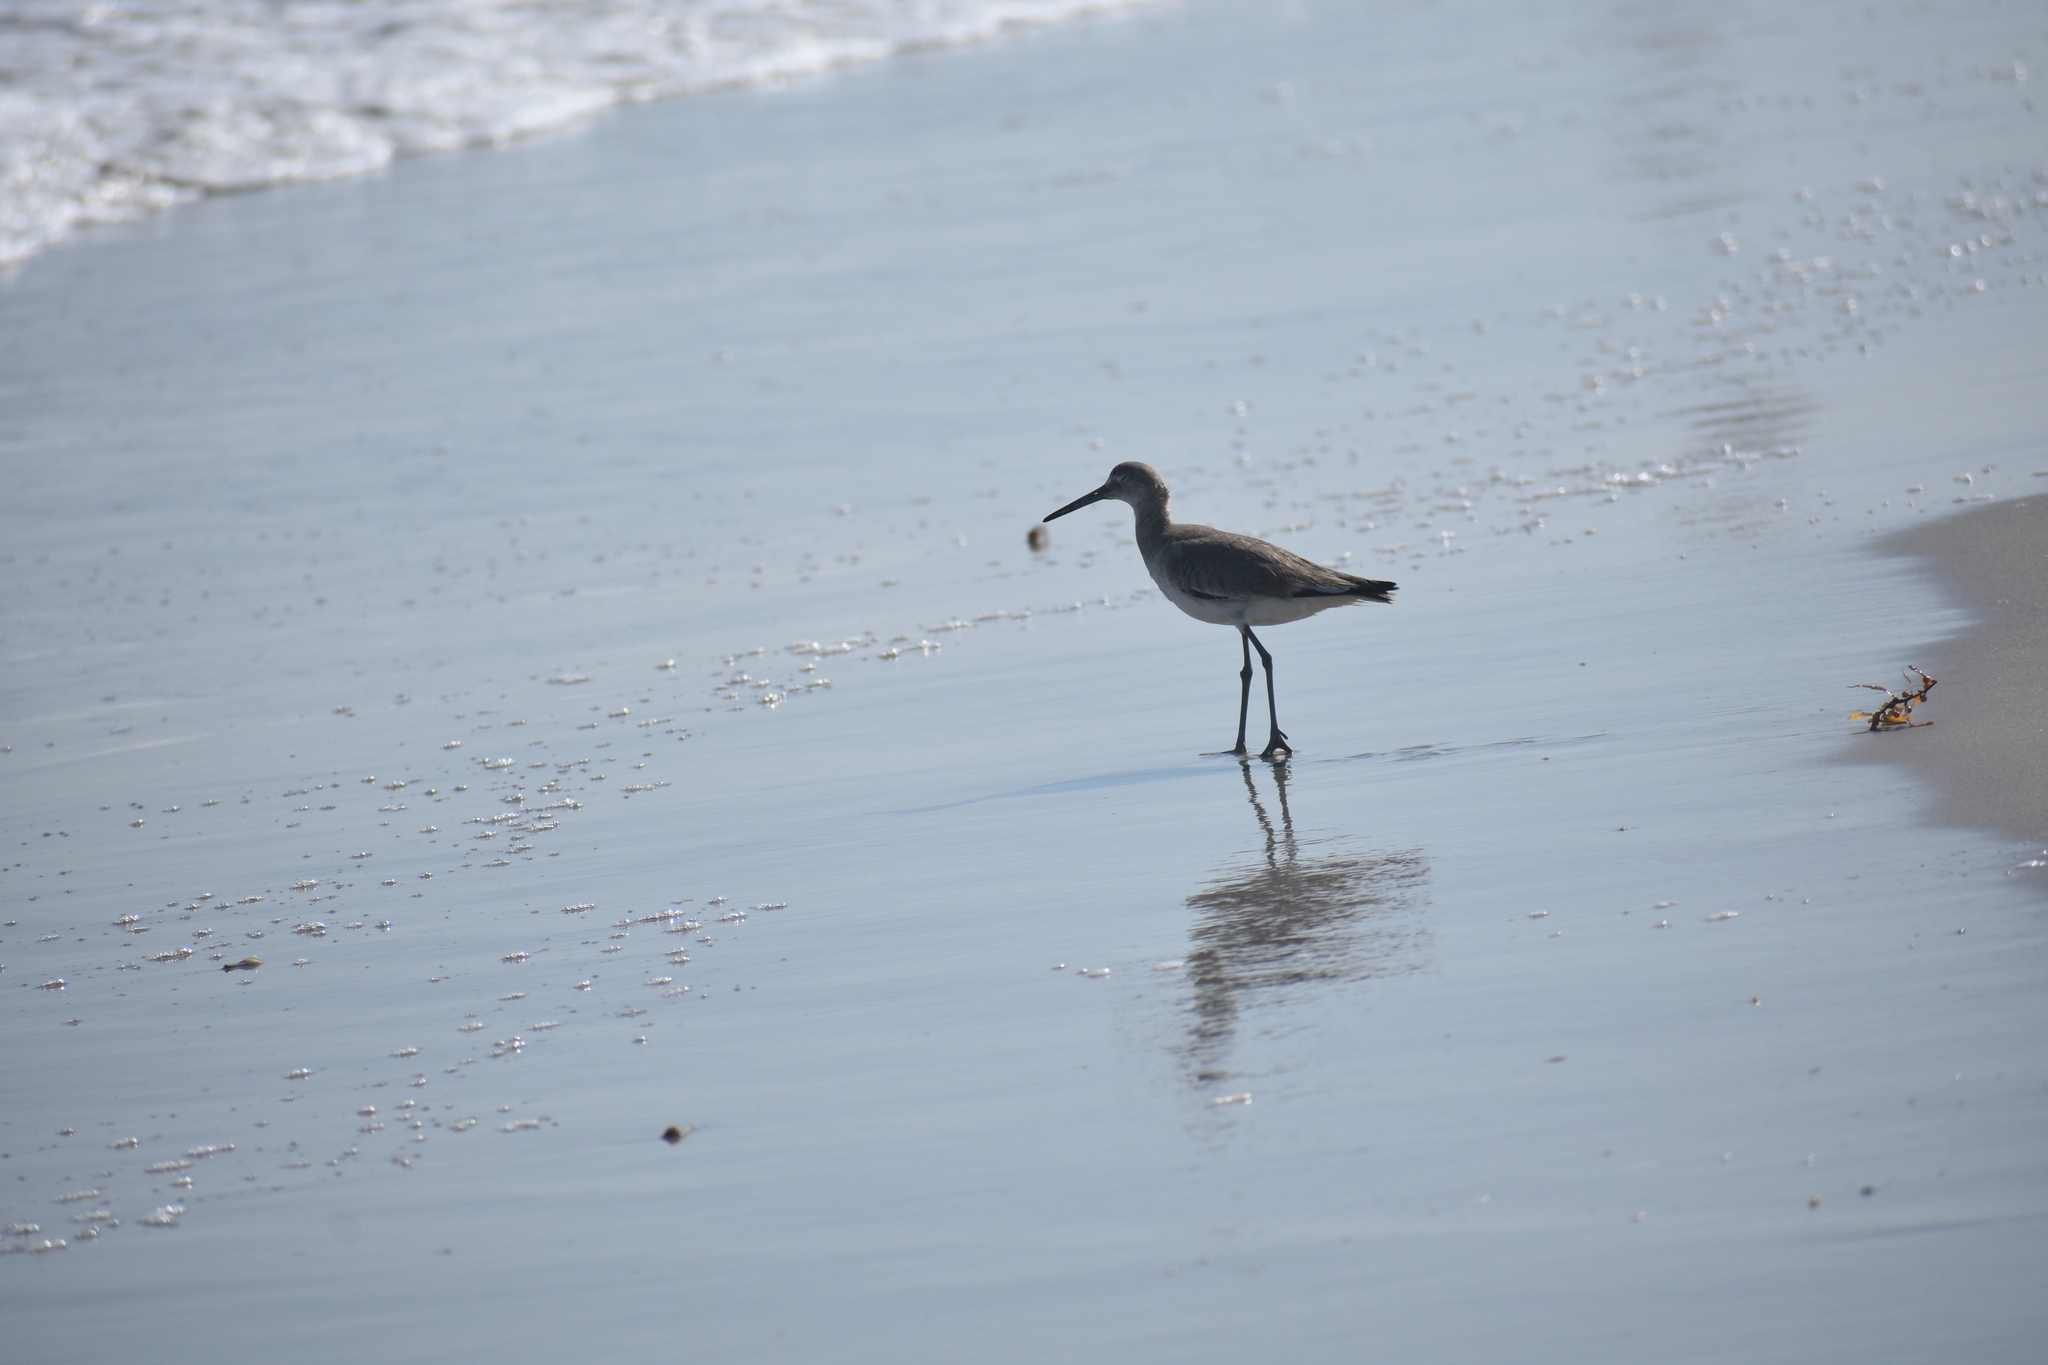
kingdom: Animalia
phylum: Chordata
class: Aves
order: Charadriiformes
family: Scolopacidae
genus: Tringa
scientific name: Tringa semipalmata
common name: Willet
